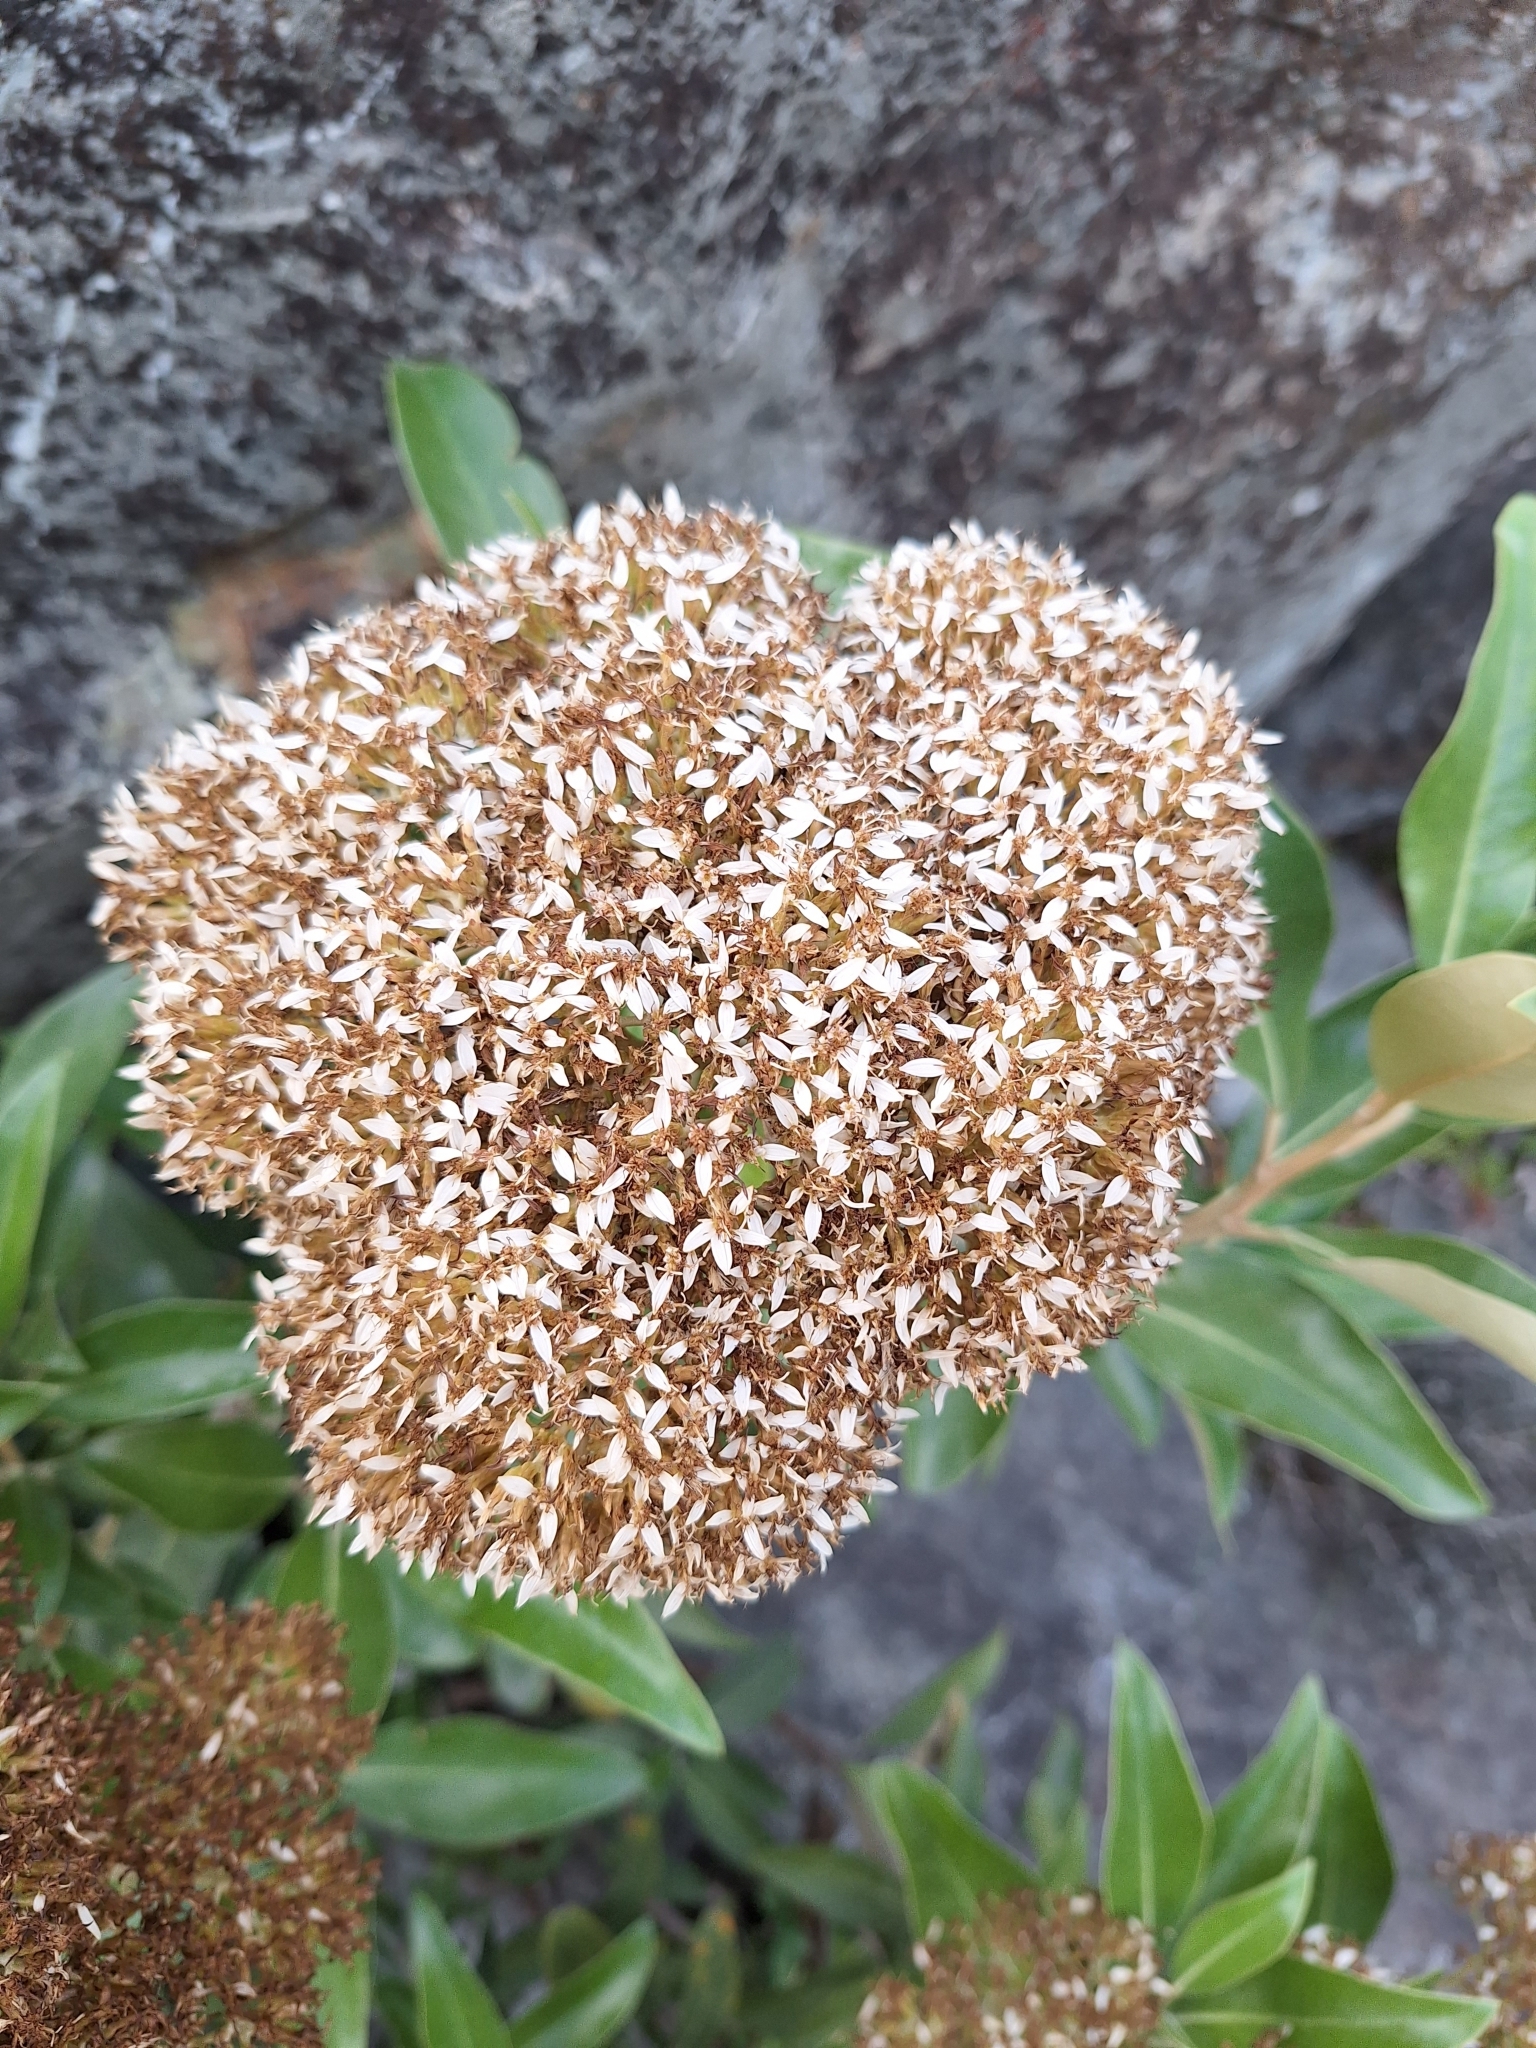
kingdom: Plantae
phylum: Tracheophyta
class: Magnoliopsida
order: Asterales
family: Asteraceae
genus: Olearia
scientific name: Olearia avicenniifolia
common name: Mangrove-leaf daisybush
